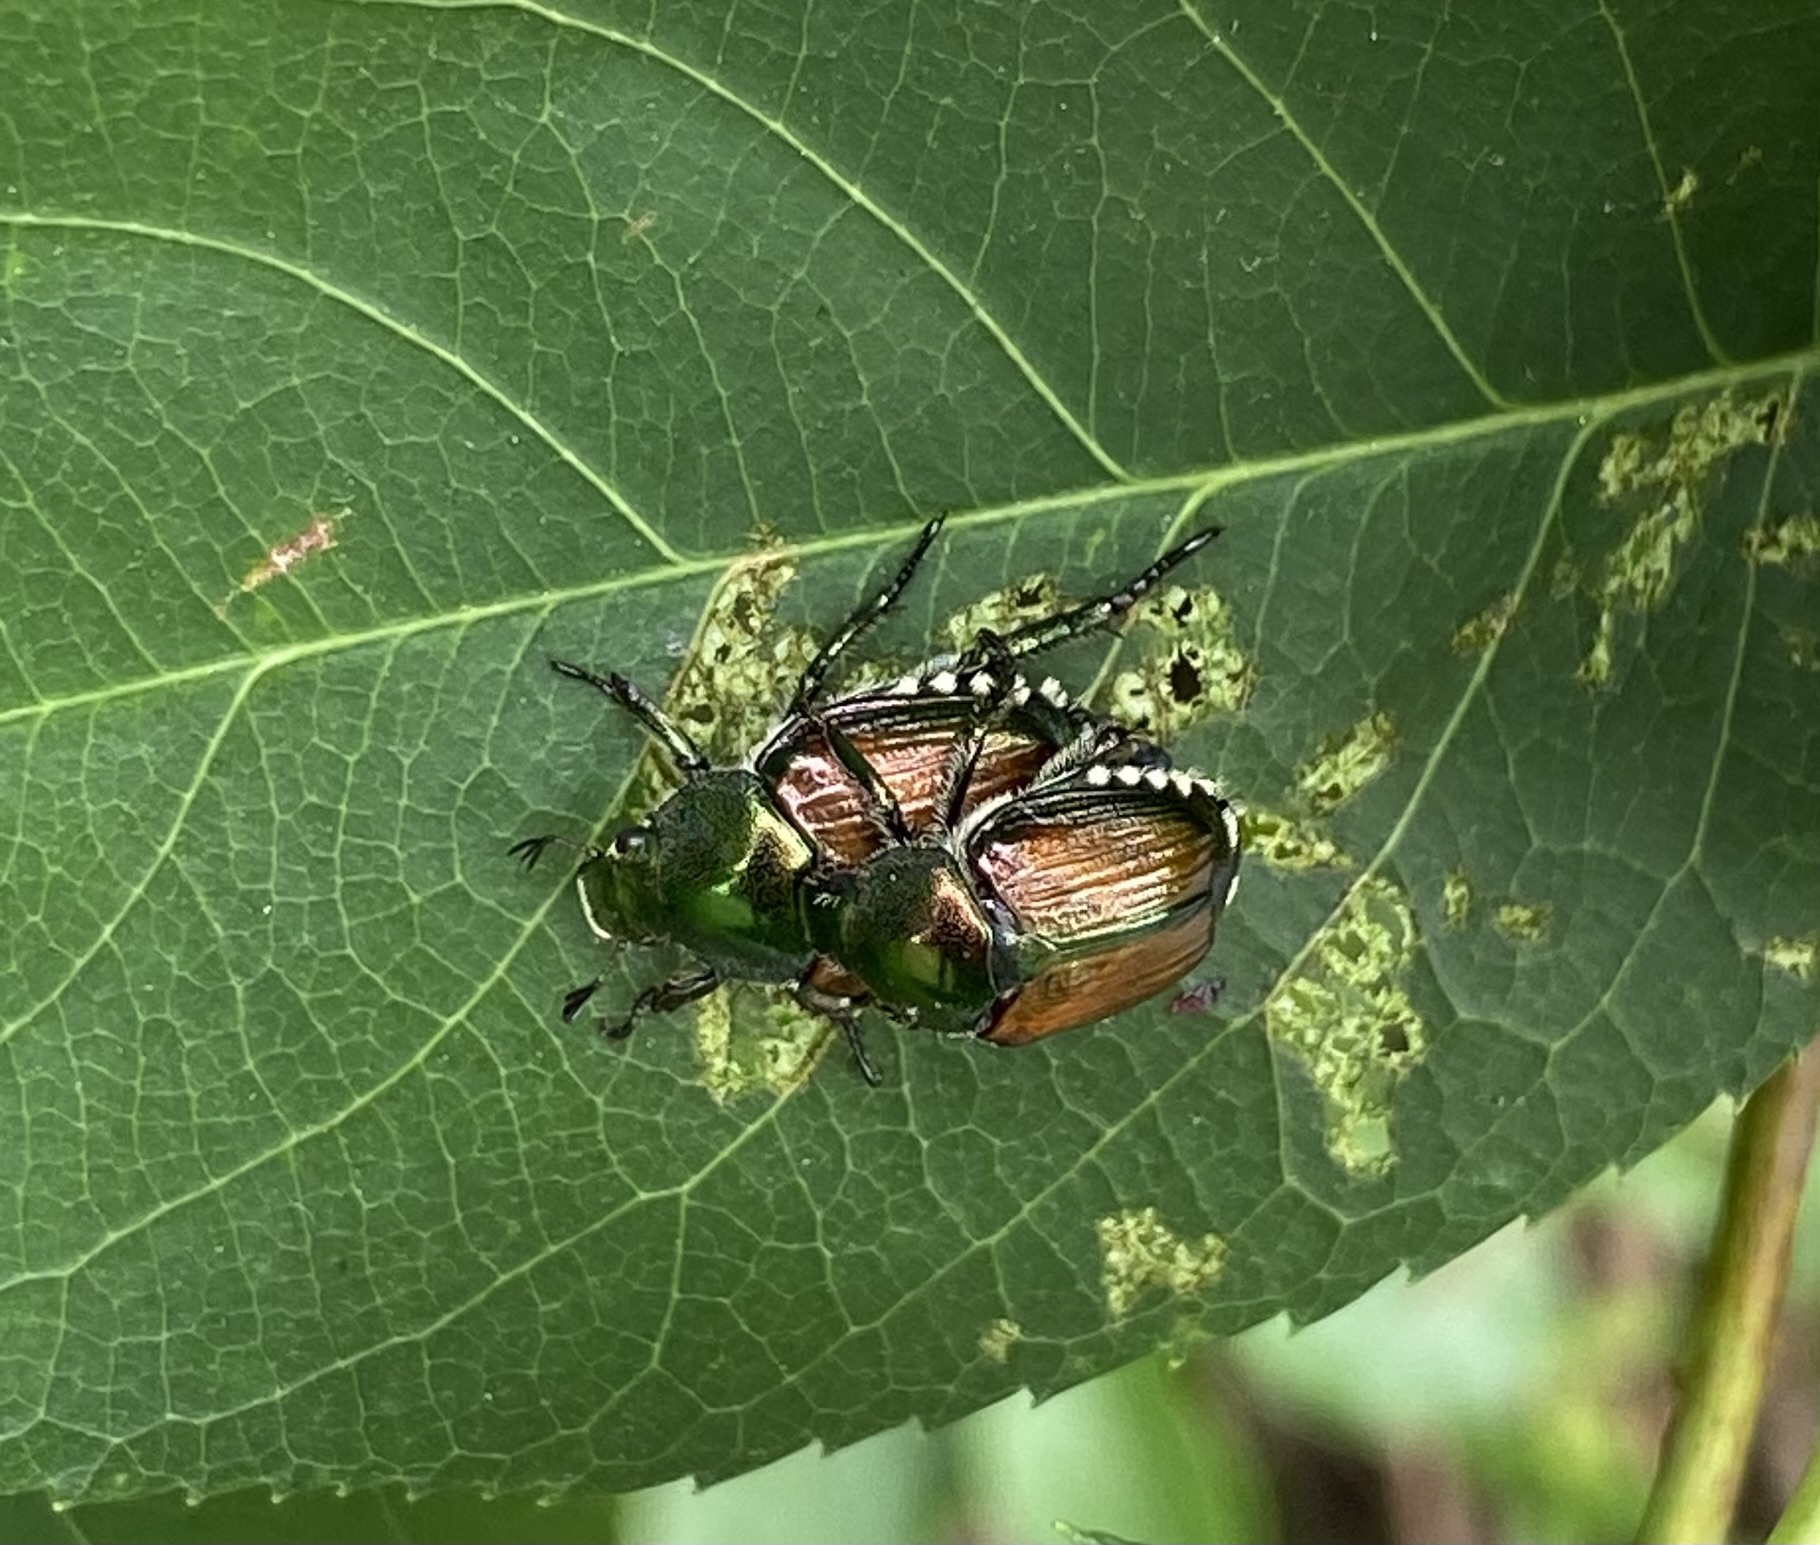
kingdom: Animalia
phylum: Arthropoda
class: Insecta
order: Coleoptera
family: Scarabaeidae
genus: Popillia
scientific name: Popillia japonica
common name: Japanese beetle
